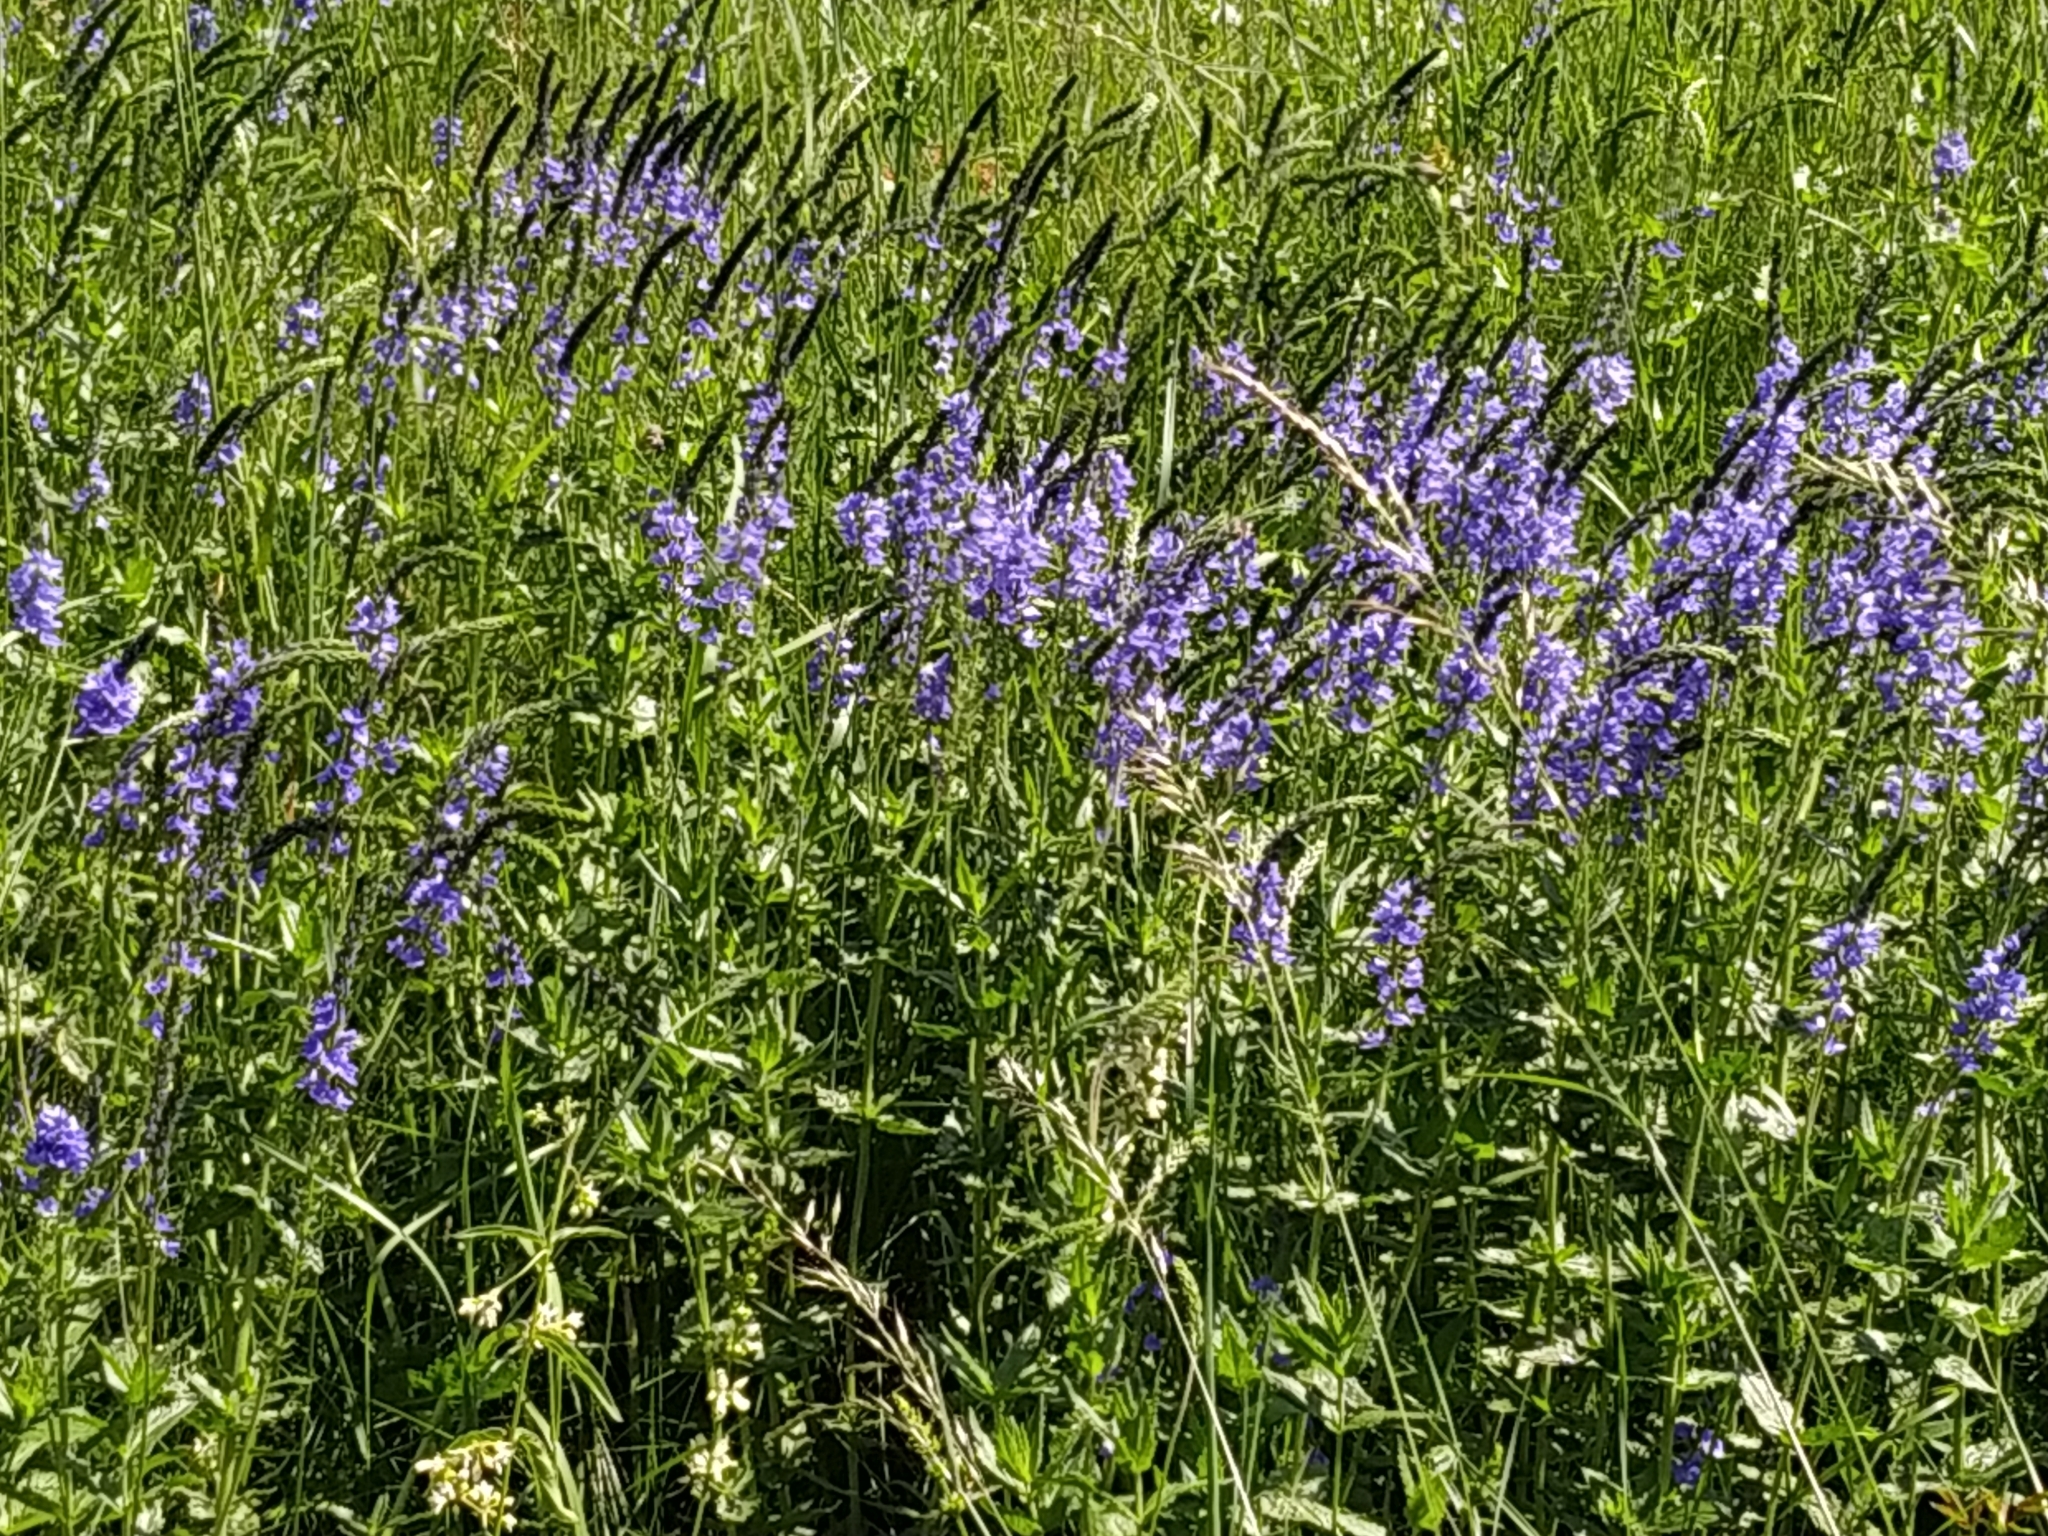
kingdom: Plantae
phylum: Tracheophyta
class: Magnoliopsida
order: Lamiales
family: Plantaginaceae
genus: Veronica
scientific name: Veronica teucrium
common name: Large speedwell
